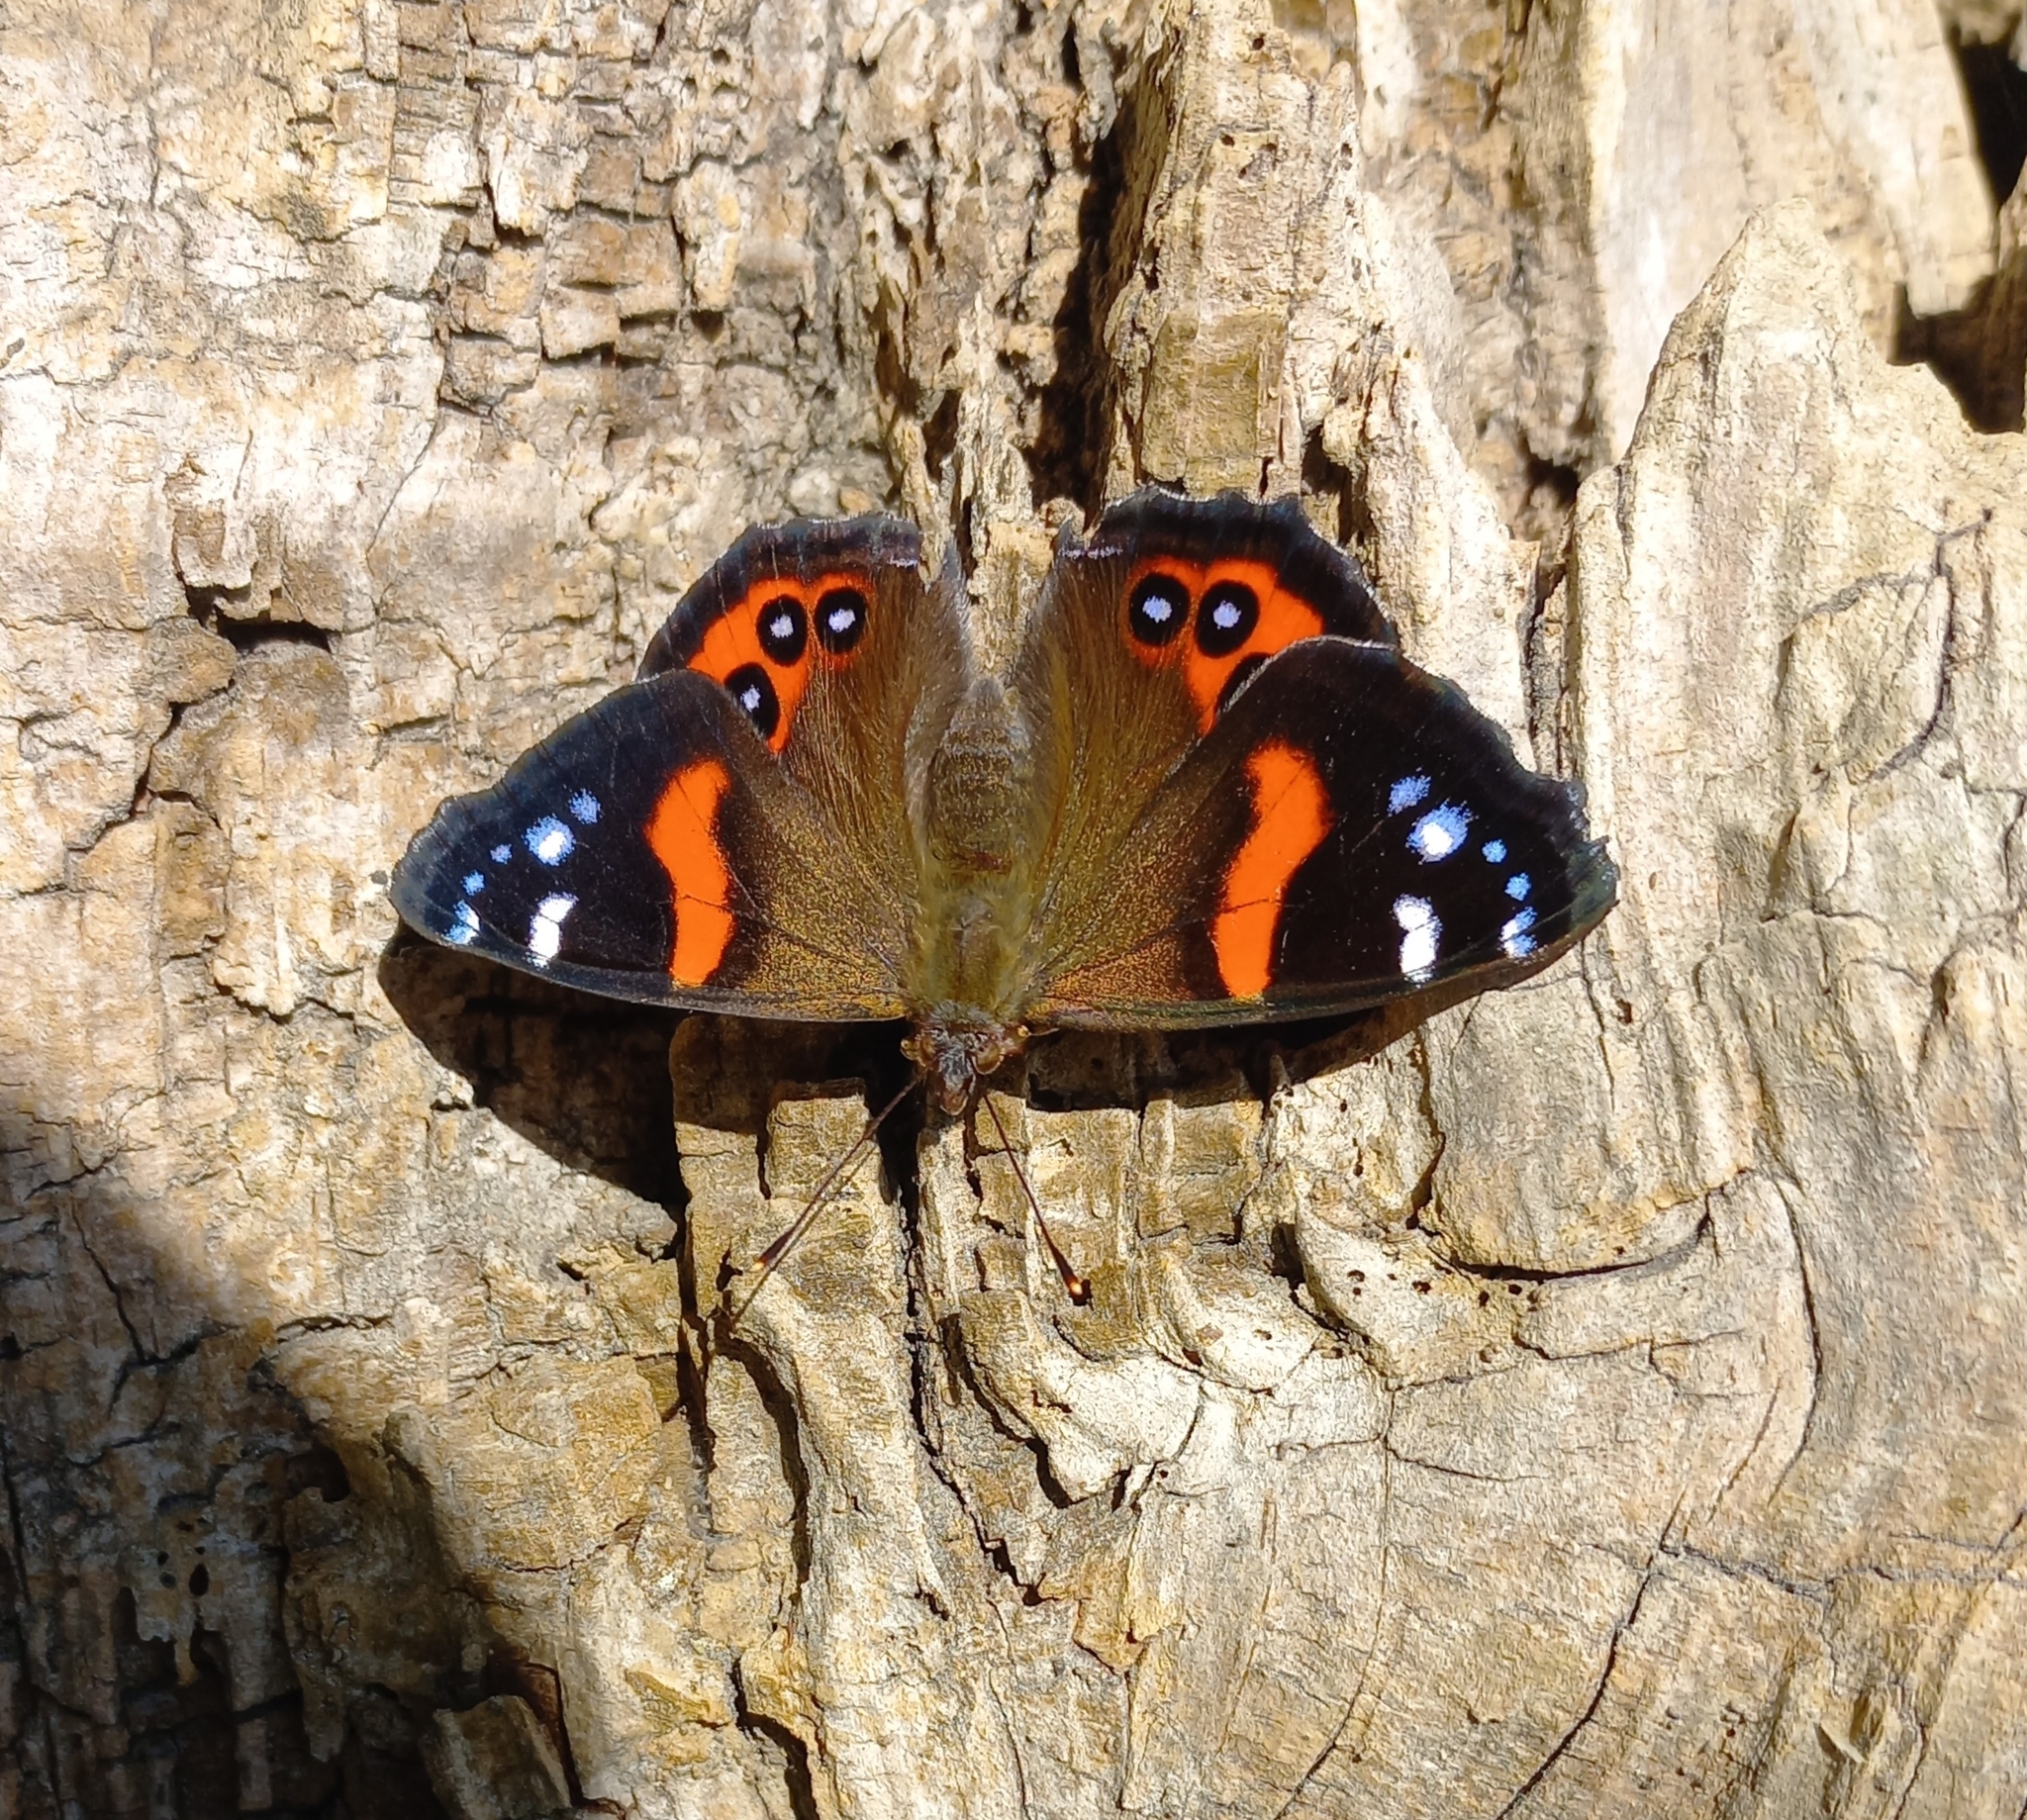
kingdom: Animalia
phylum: Arthropoda
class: Insecta
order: Lepidoptera
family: Nymphalidae
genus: Vanessa
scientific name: Vanessa gonerilla
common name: New zealand red admiral
